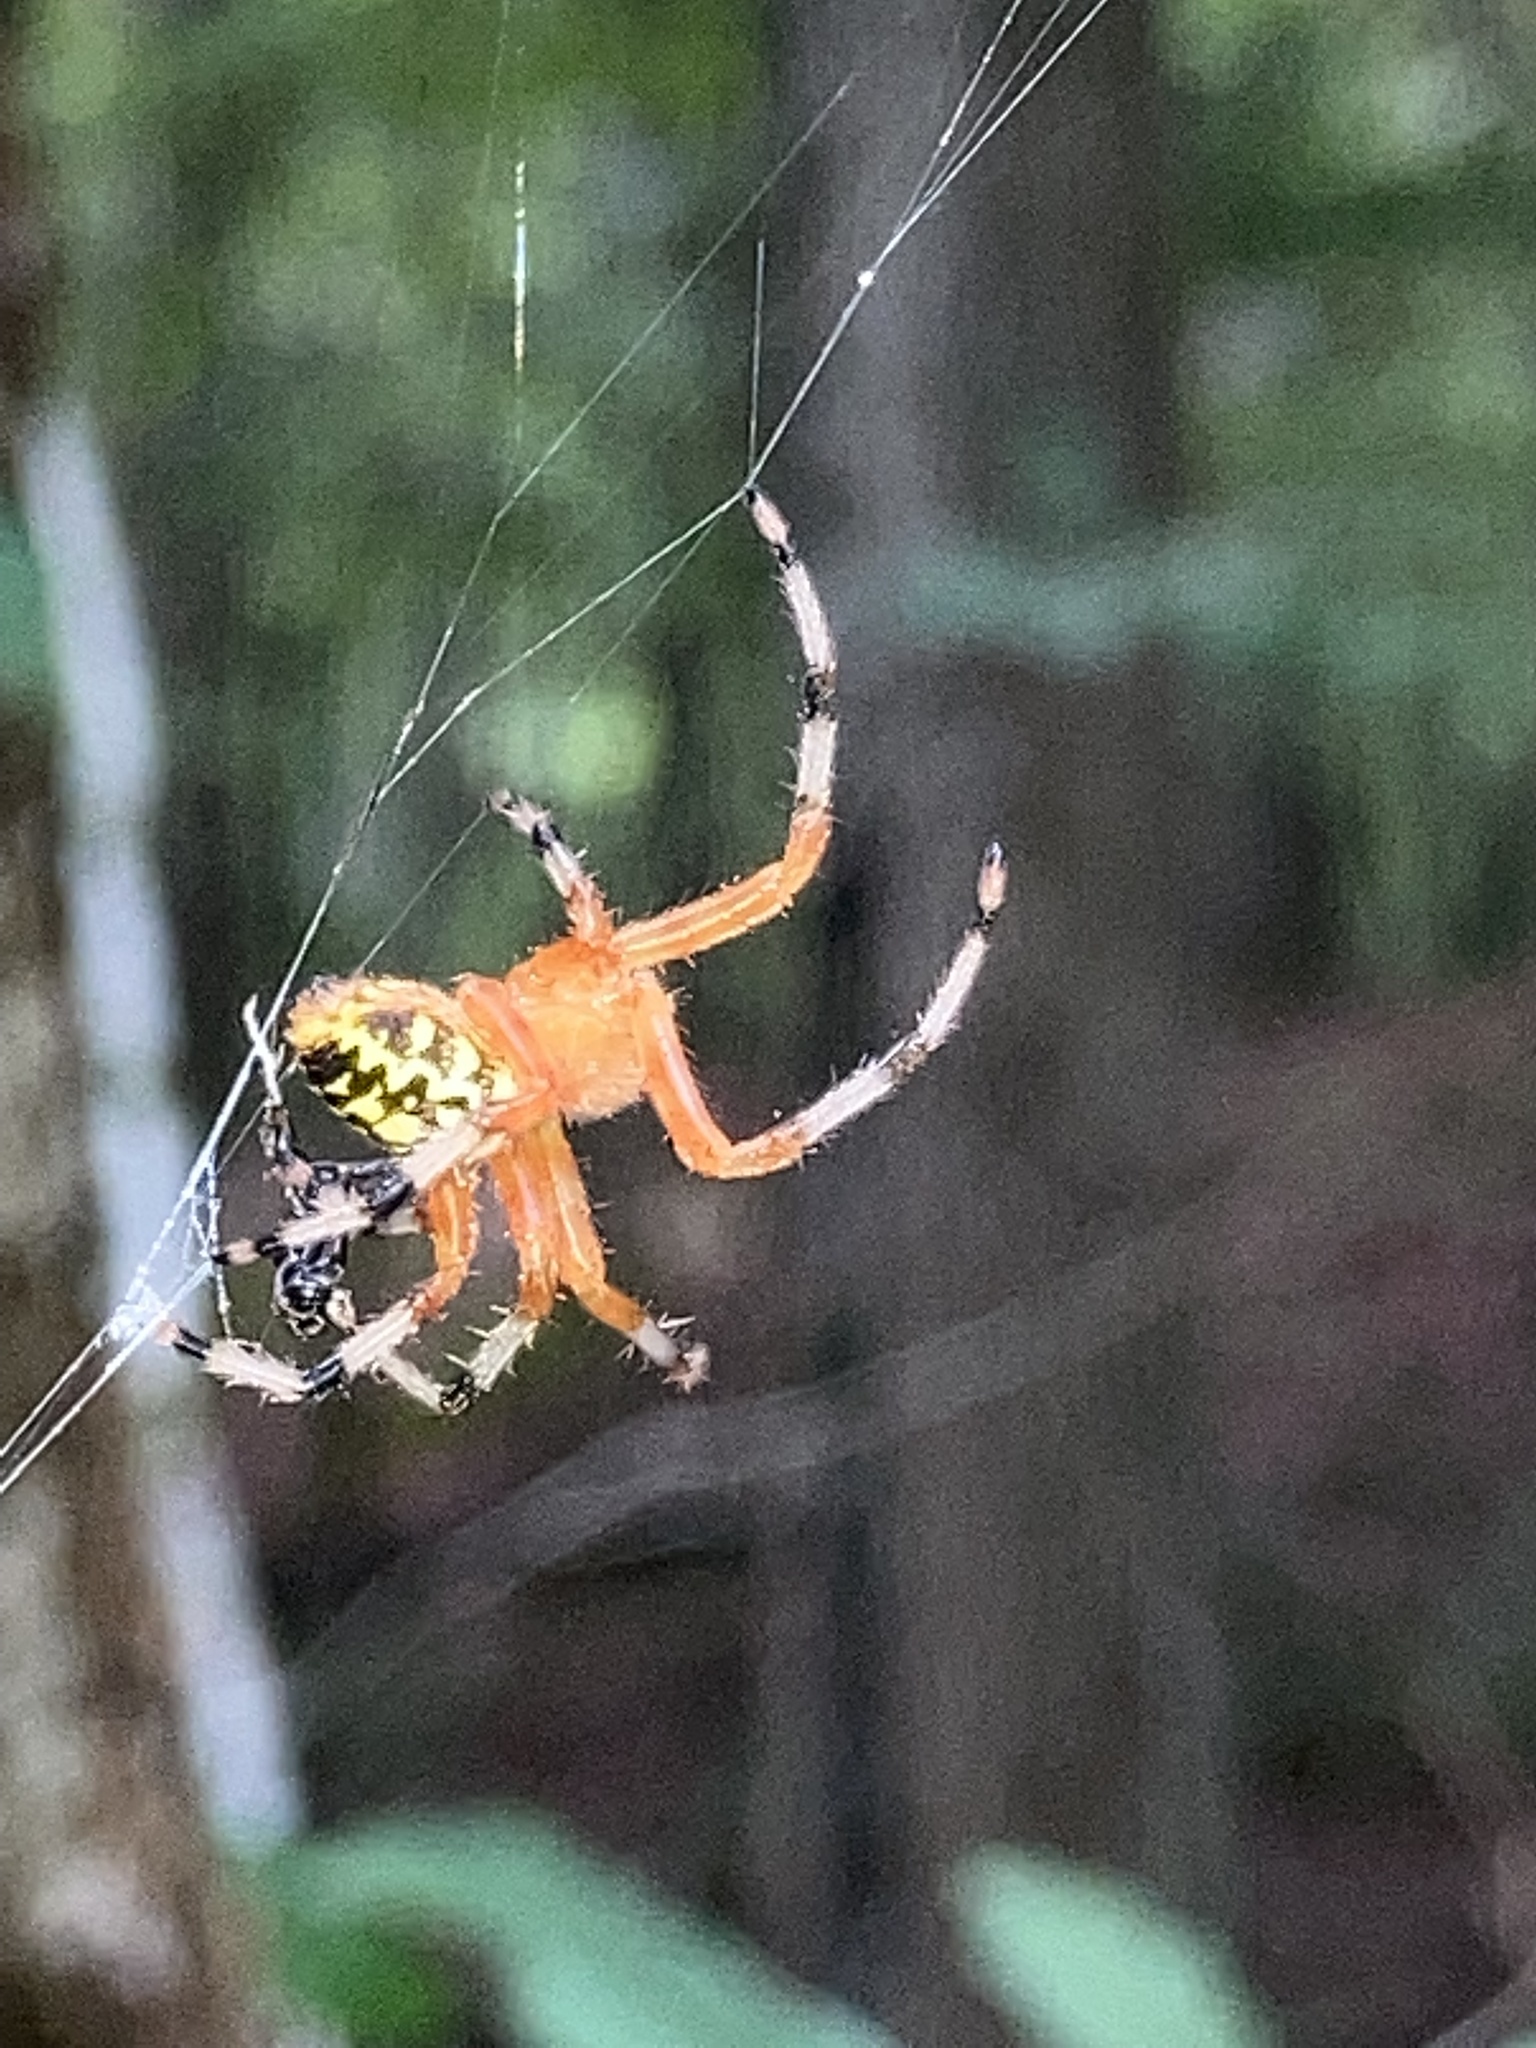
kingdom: Animalia
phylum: Arthropoda
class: Arachnida
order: Araneae
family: Araneidae
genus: Araneus
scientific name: Araneus marmoreus
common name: Marbled orbweaver
